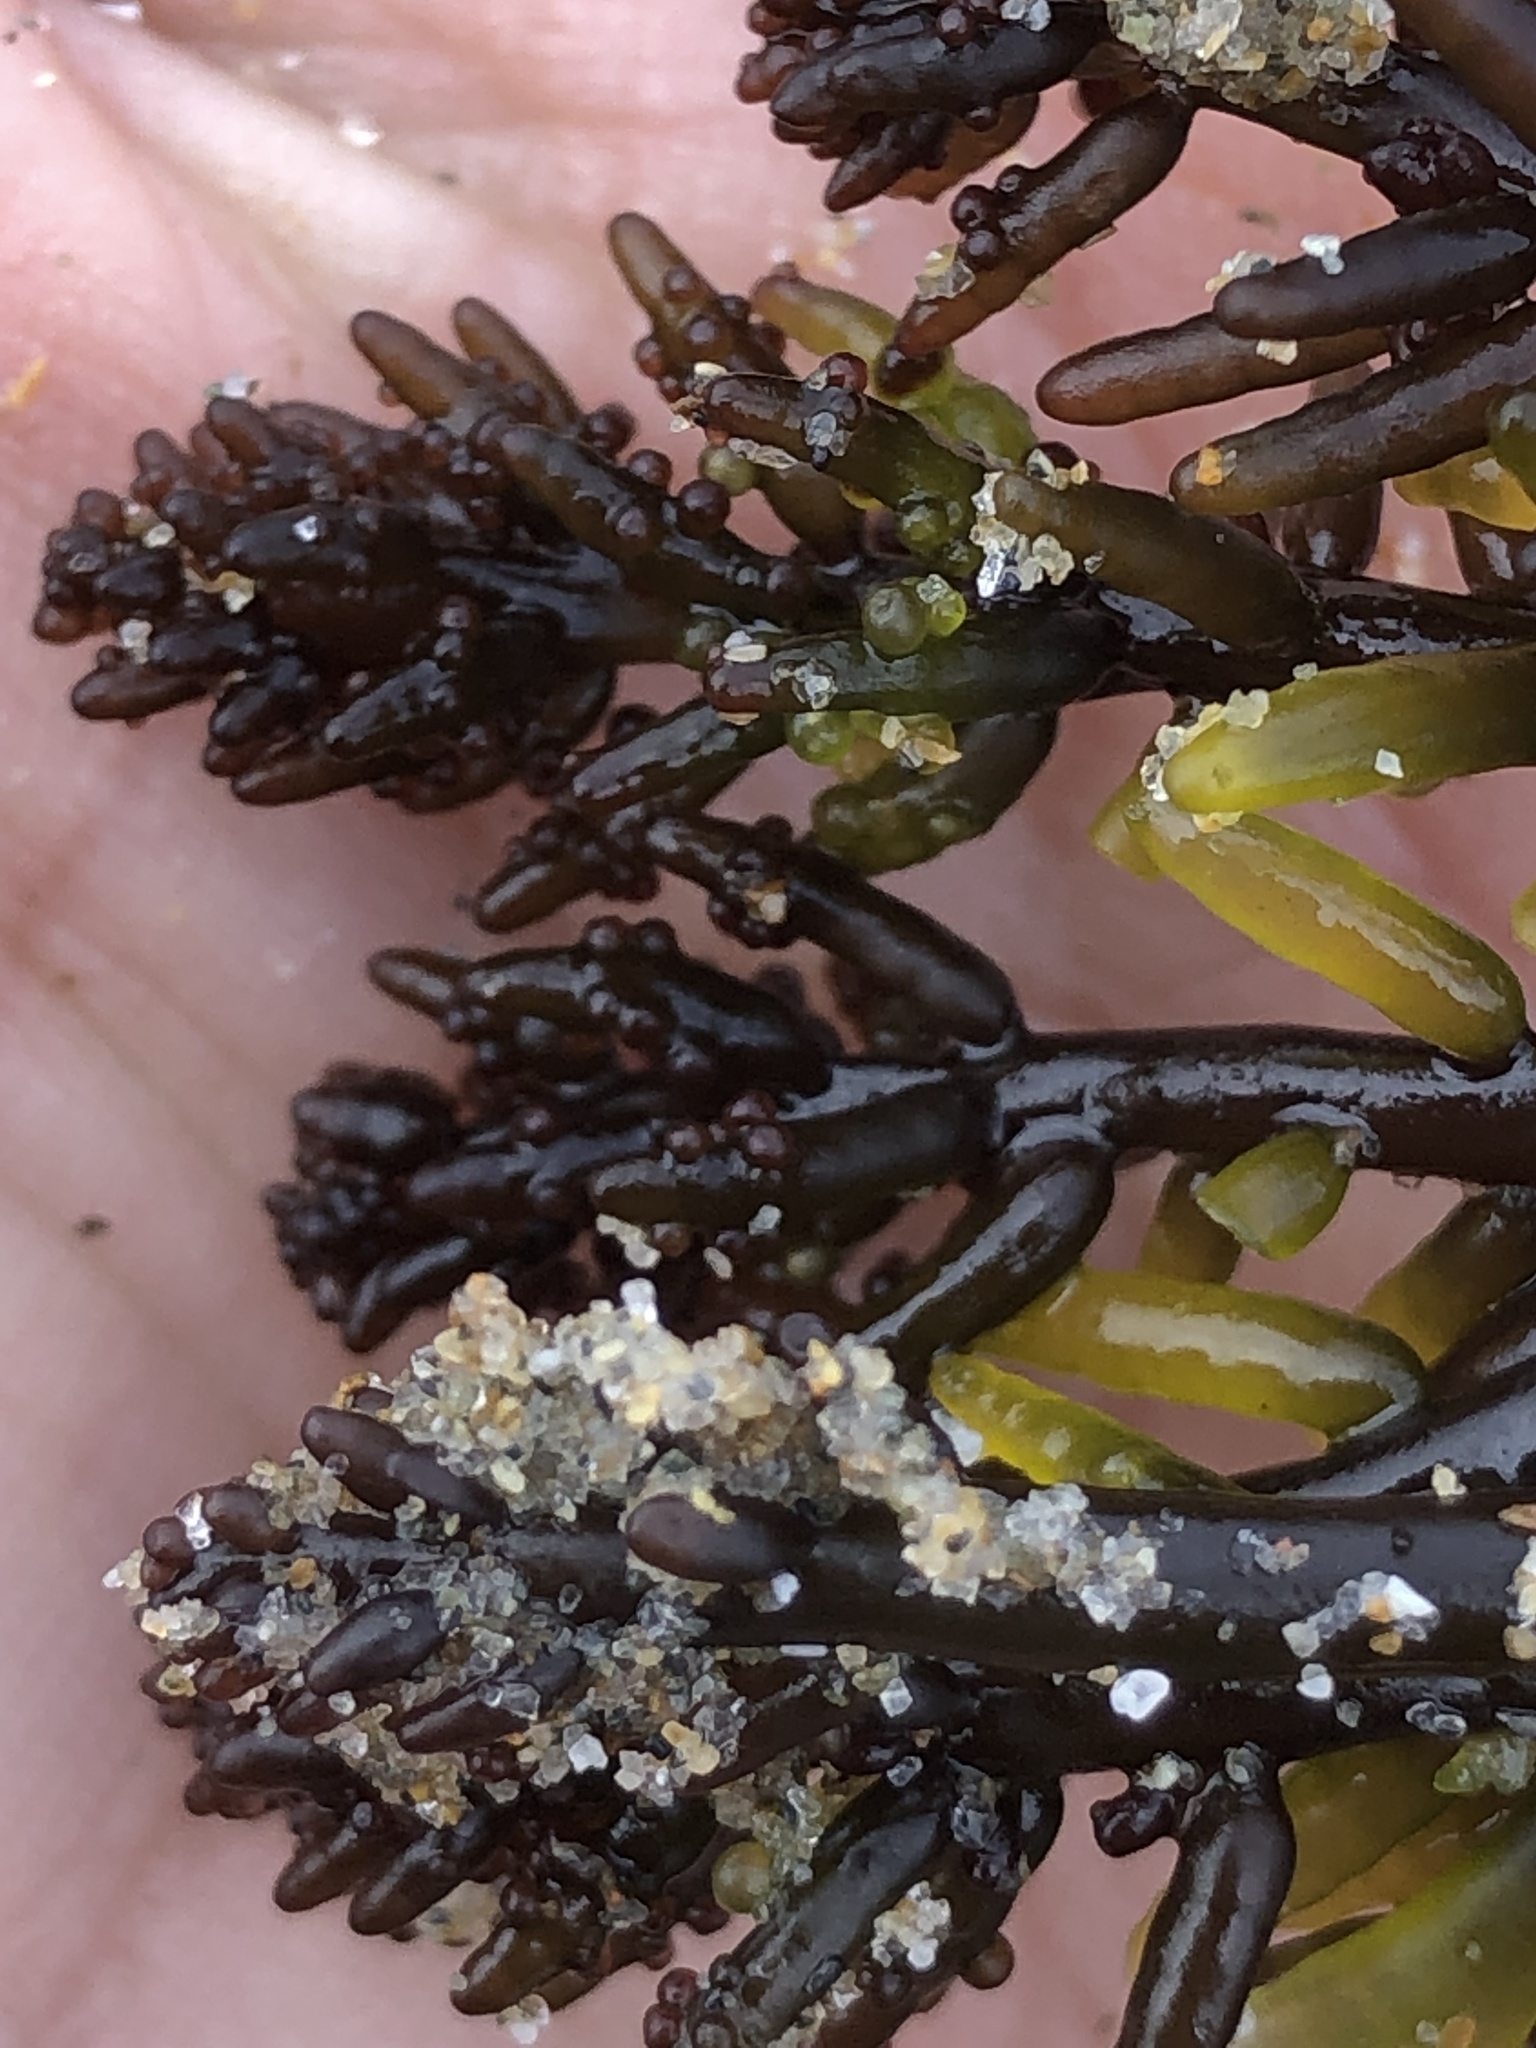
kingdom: Plantae
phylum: Rhodophyta
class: Florideophyceae
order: Rhodymeniales
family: Champiaceae
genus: Neogastroclonium
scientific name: Neogastroclonium subarticulatum
